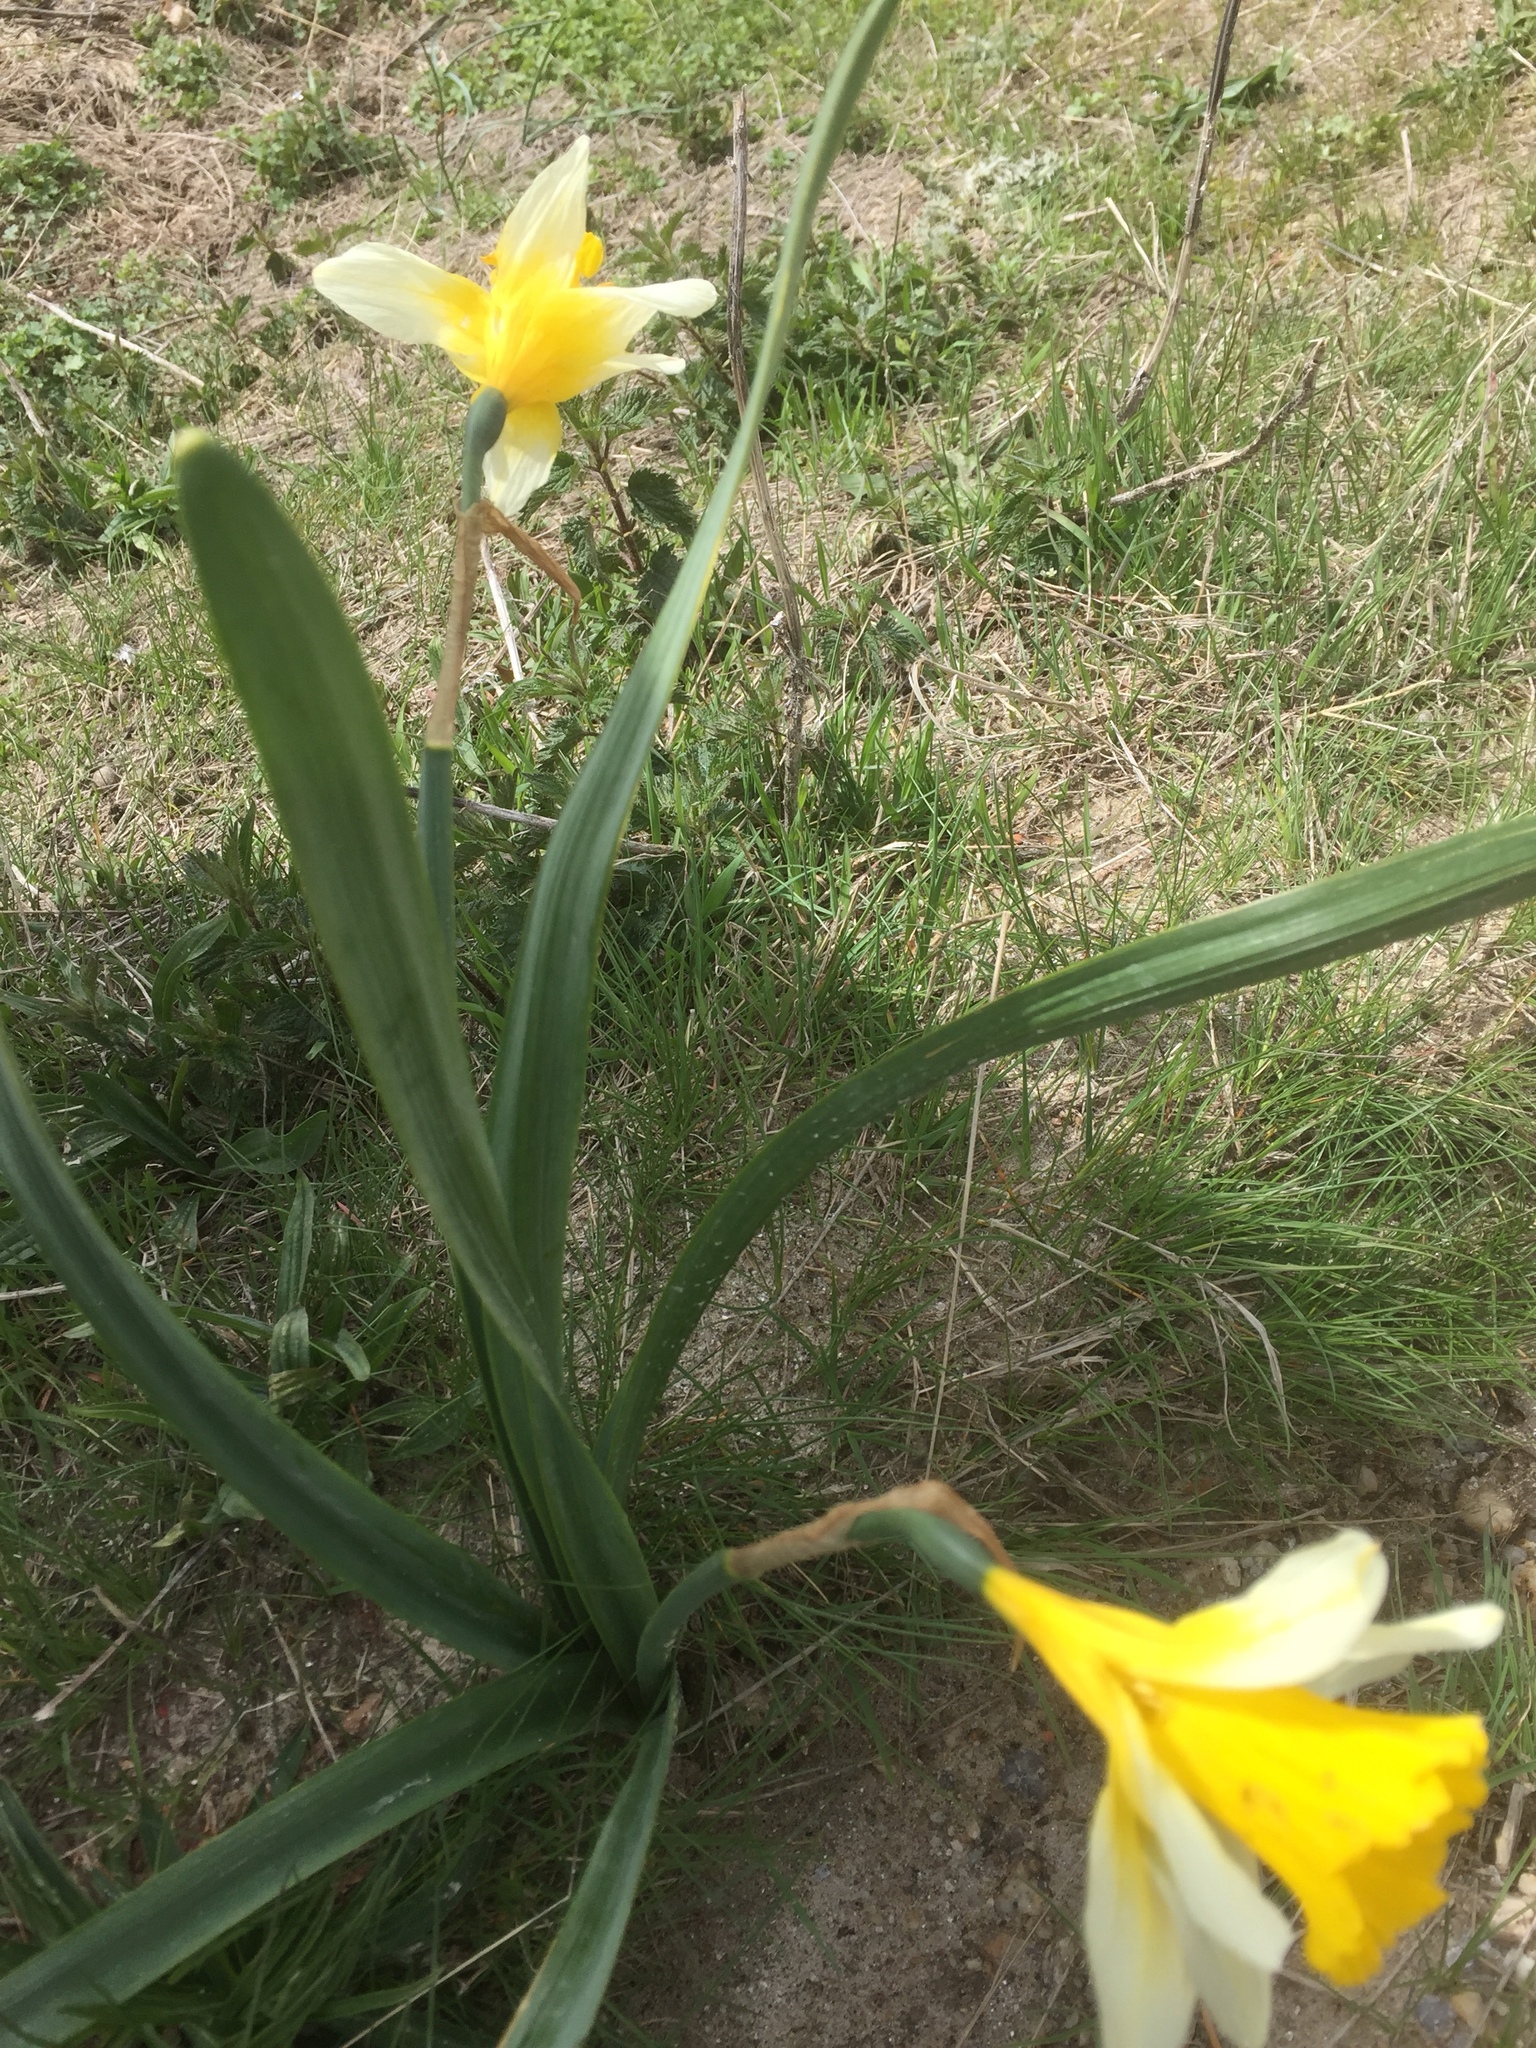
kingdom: Plantae
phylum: Tracheophyta
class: Liliopsida
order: Asparagales
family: Amaryllidaceae
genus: Narcissus
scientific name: Narcissus pseudonarcissus
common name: Daffodil
